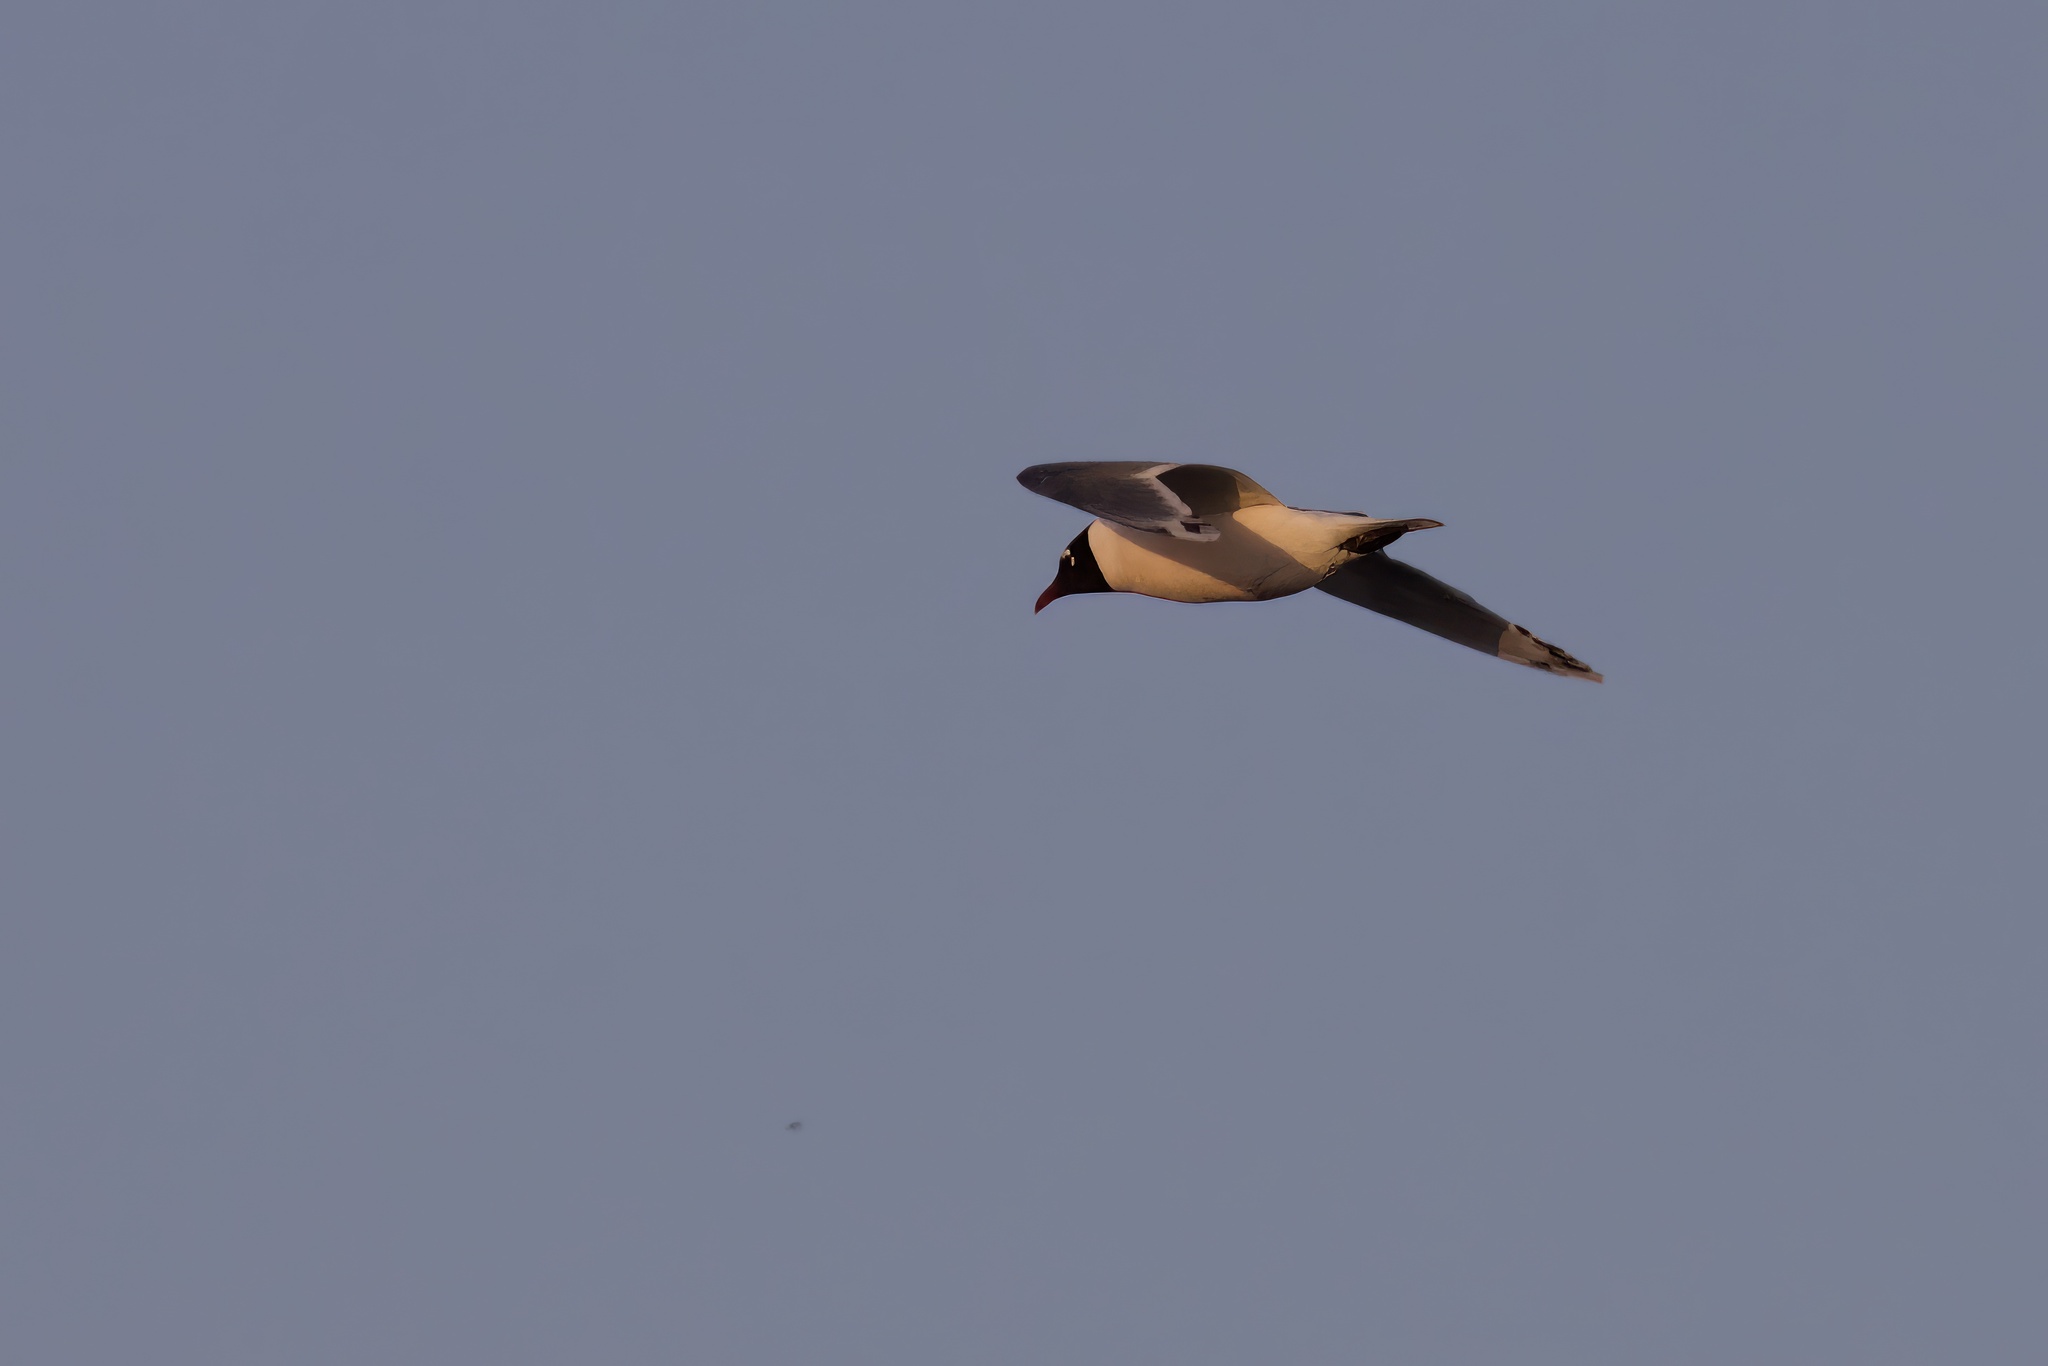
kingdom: Animalia
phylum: Chordata
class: Aves
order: Charadriiformes
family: Laridae
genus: Leucophaeus
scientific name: Leucophaeus pipixcan
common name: Franklin's gull
